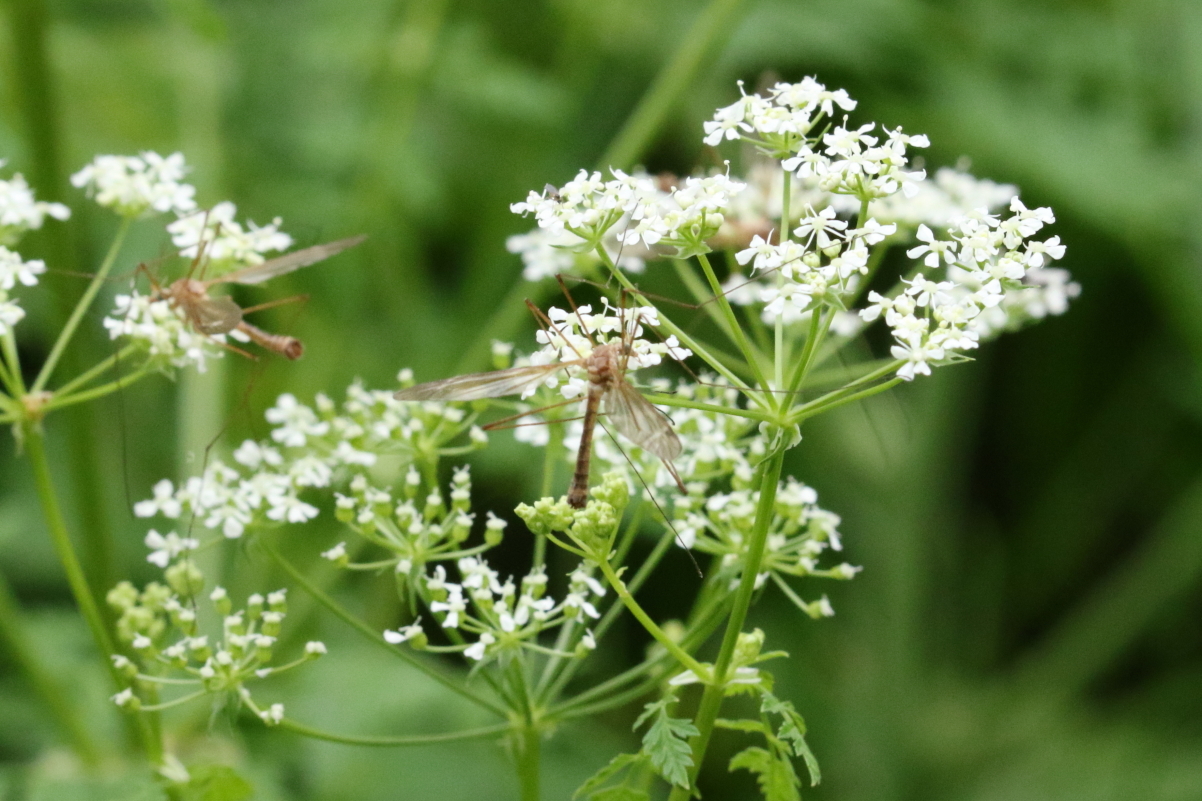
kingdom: Plantae
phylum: Tracheophyta
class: Magnoliopsida
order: Apiales
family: Apiaceae
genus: Cicuta
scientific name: Cicuta maculata
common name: Spotted cowbane
